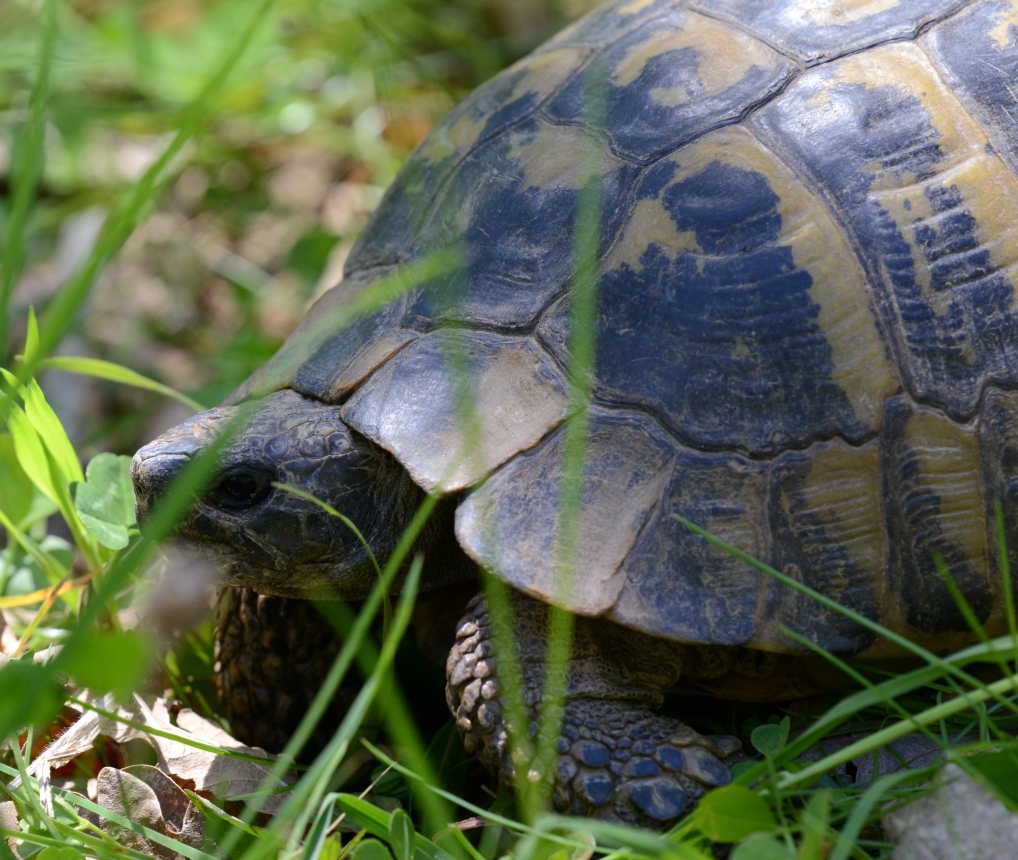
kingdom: Animalia
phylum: Chordata
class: Testudines
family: Testudinidae
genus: Testudo
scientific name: Testudo hermanni
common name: Hermann's tortoise
